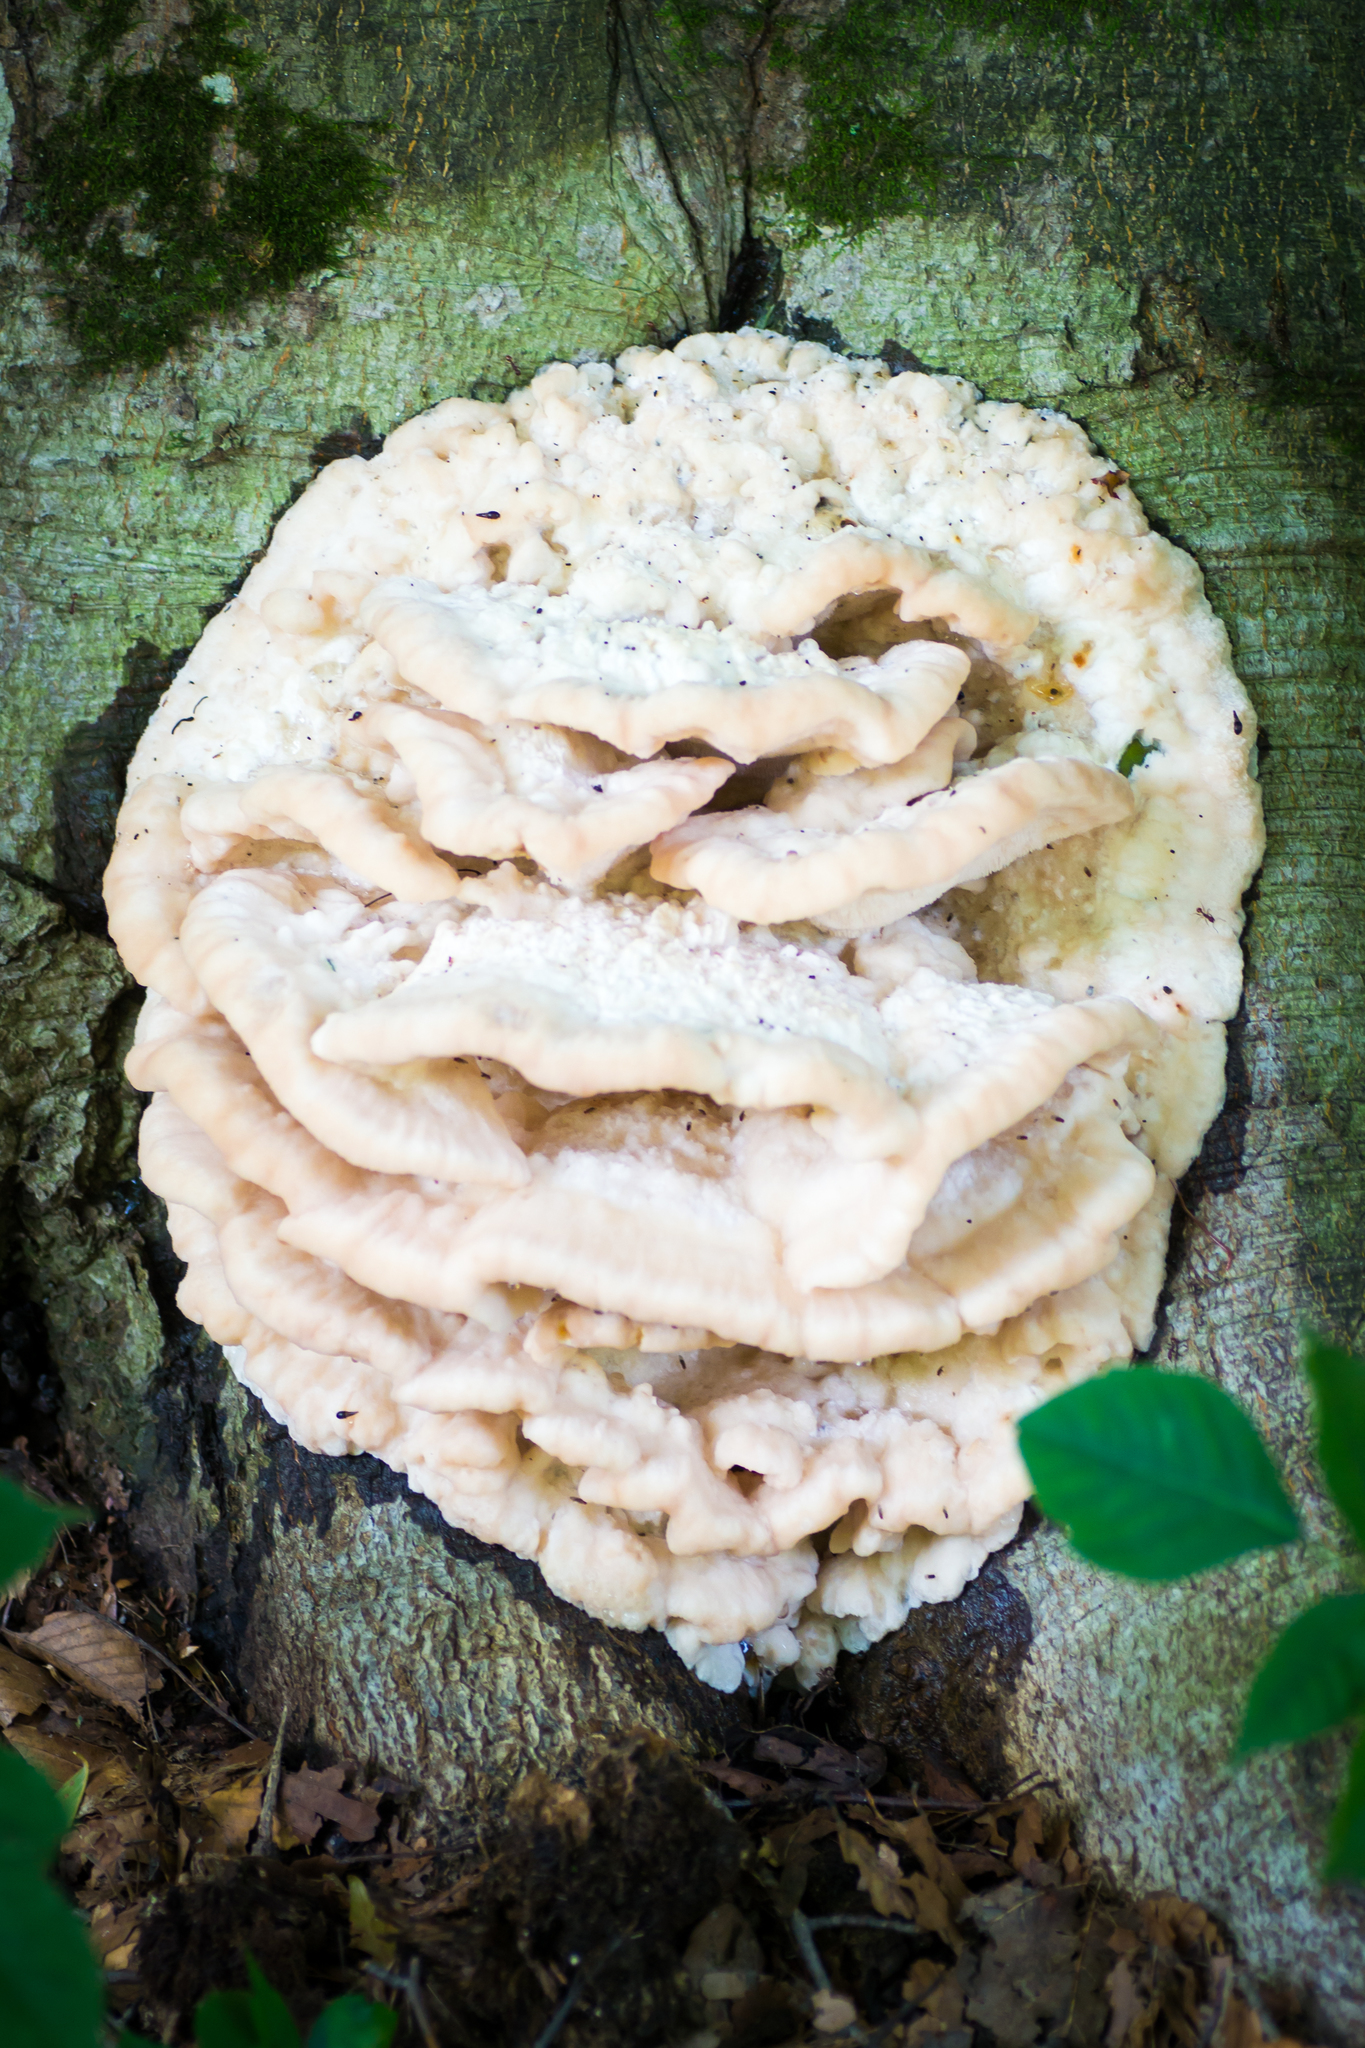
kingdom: Fungi
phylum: Basidiomycota
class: Agaricomycetes
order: Polyporales
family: Meruliaceae
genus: Climacodon
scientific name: Climacodon septentrionalis
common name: Northern tooth
